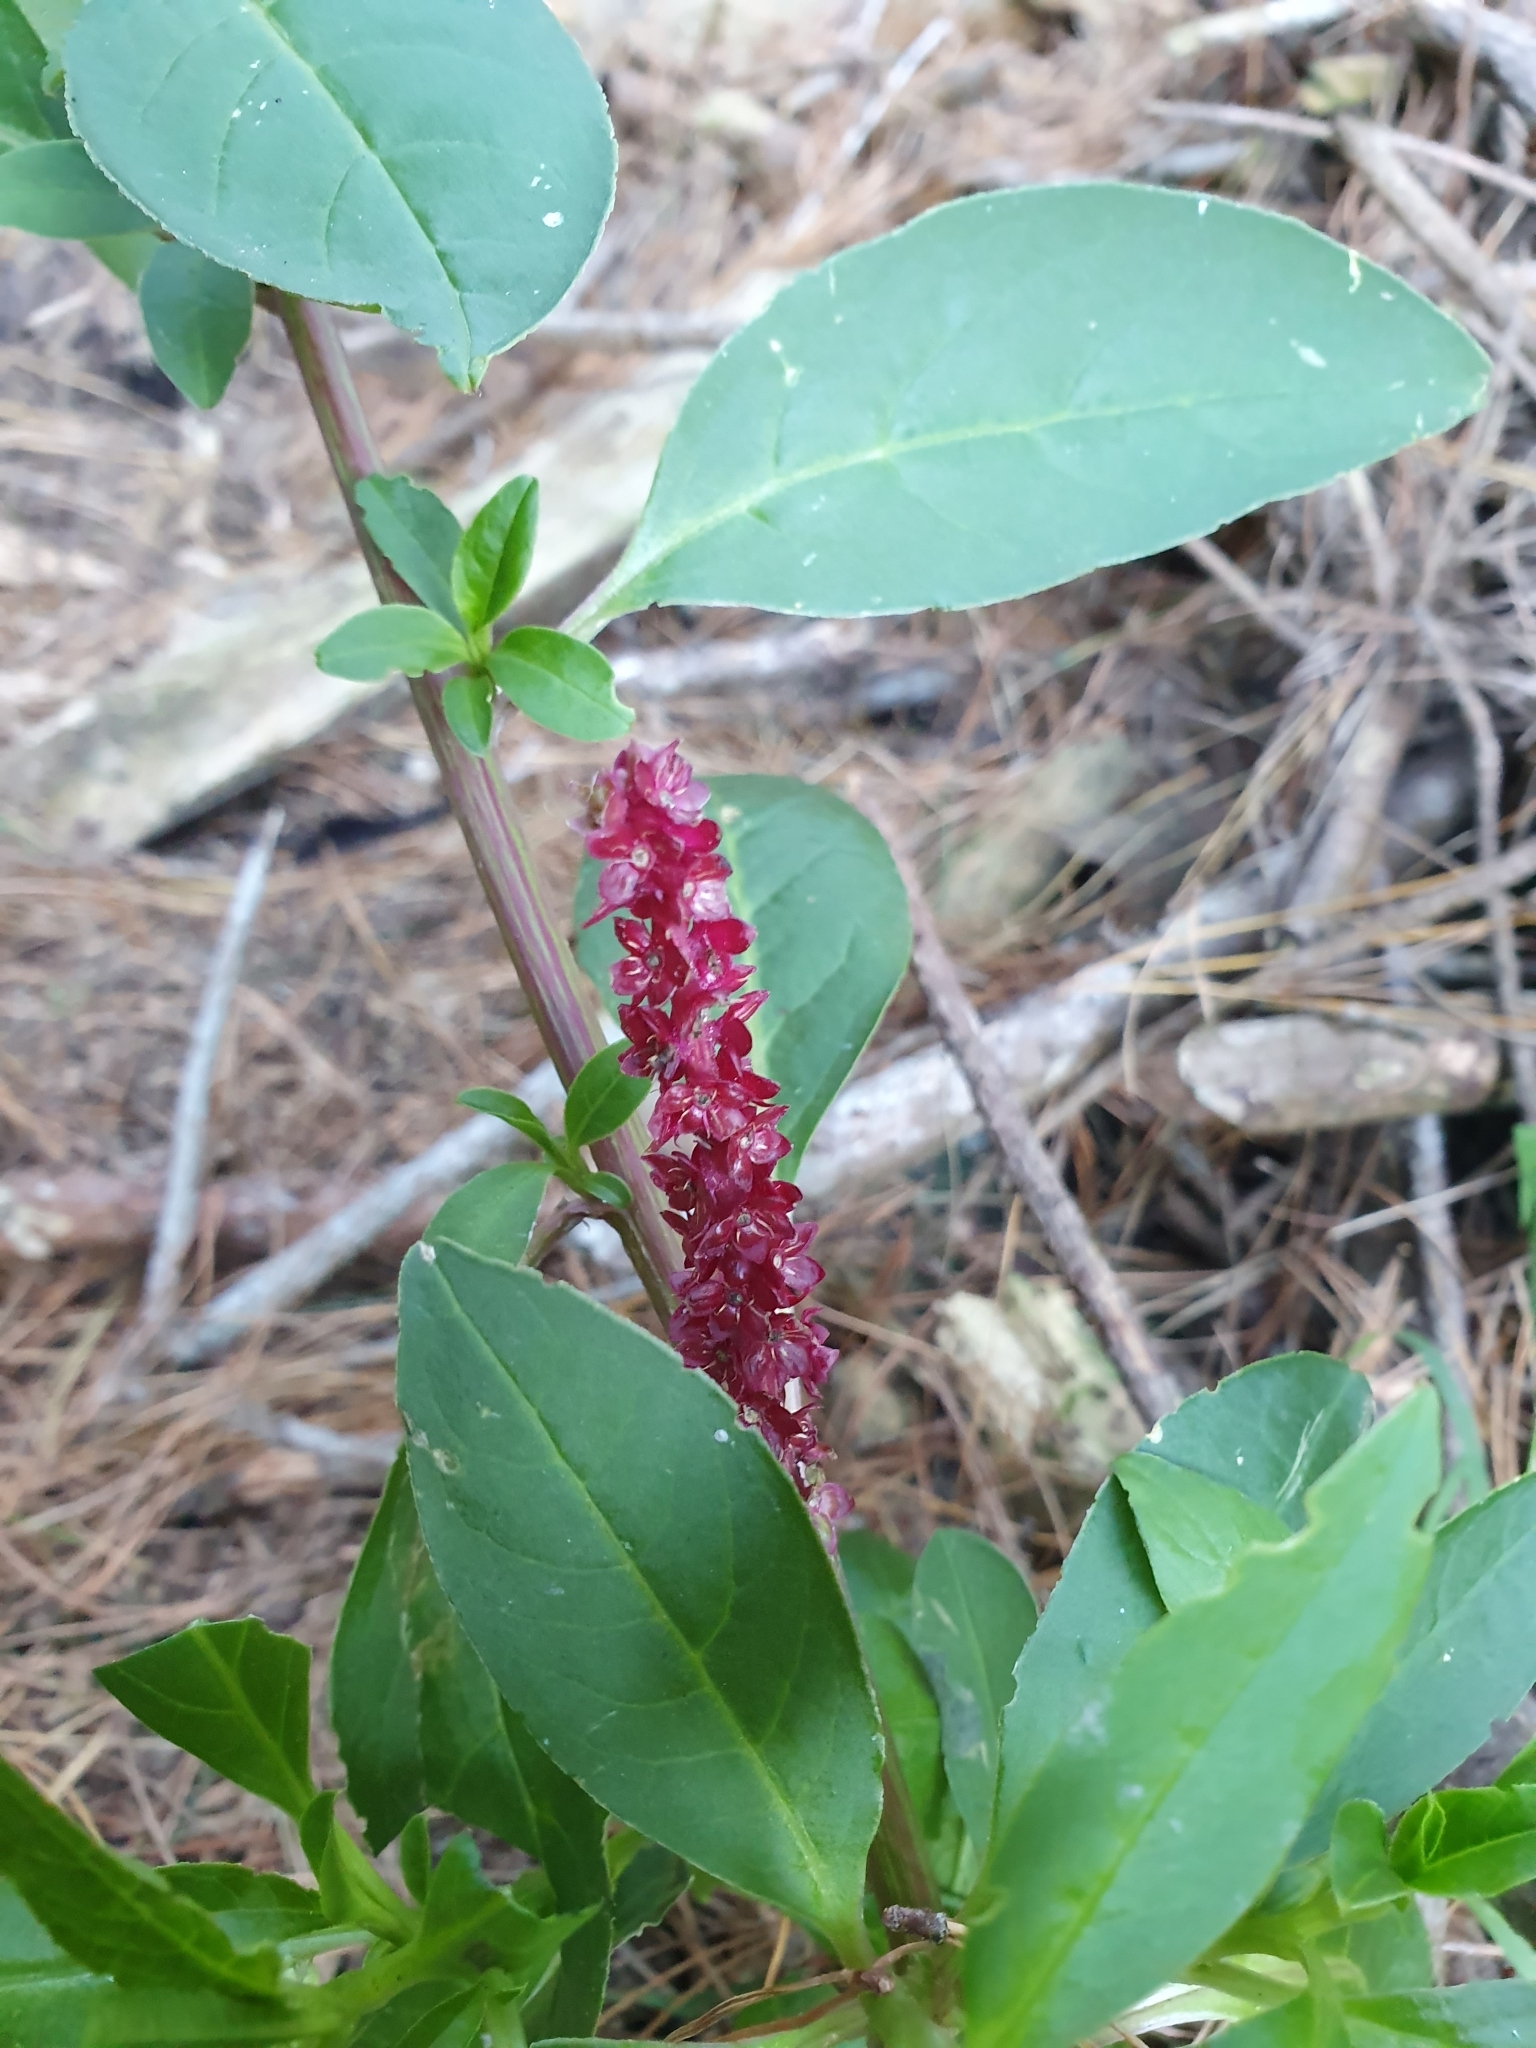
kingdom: Plantae
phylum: Tracheophyta
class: Magnoliopsida
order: Caryophyllales
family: Phytolaccaceae
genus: Phytolacca
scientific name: Phytolacca icosandra
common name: Button pokeweed
